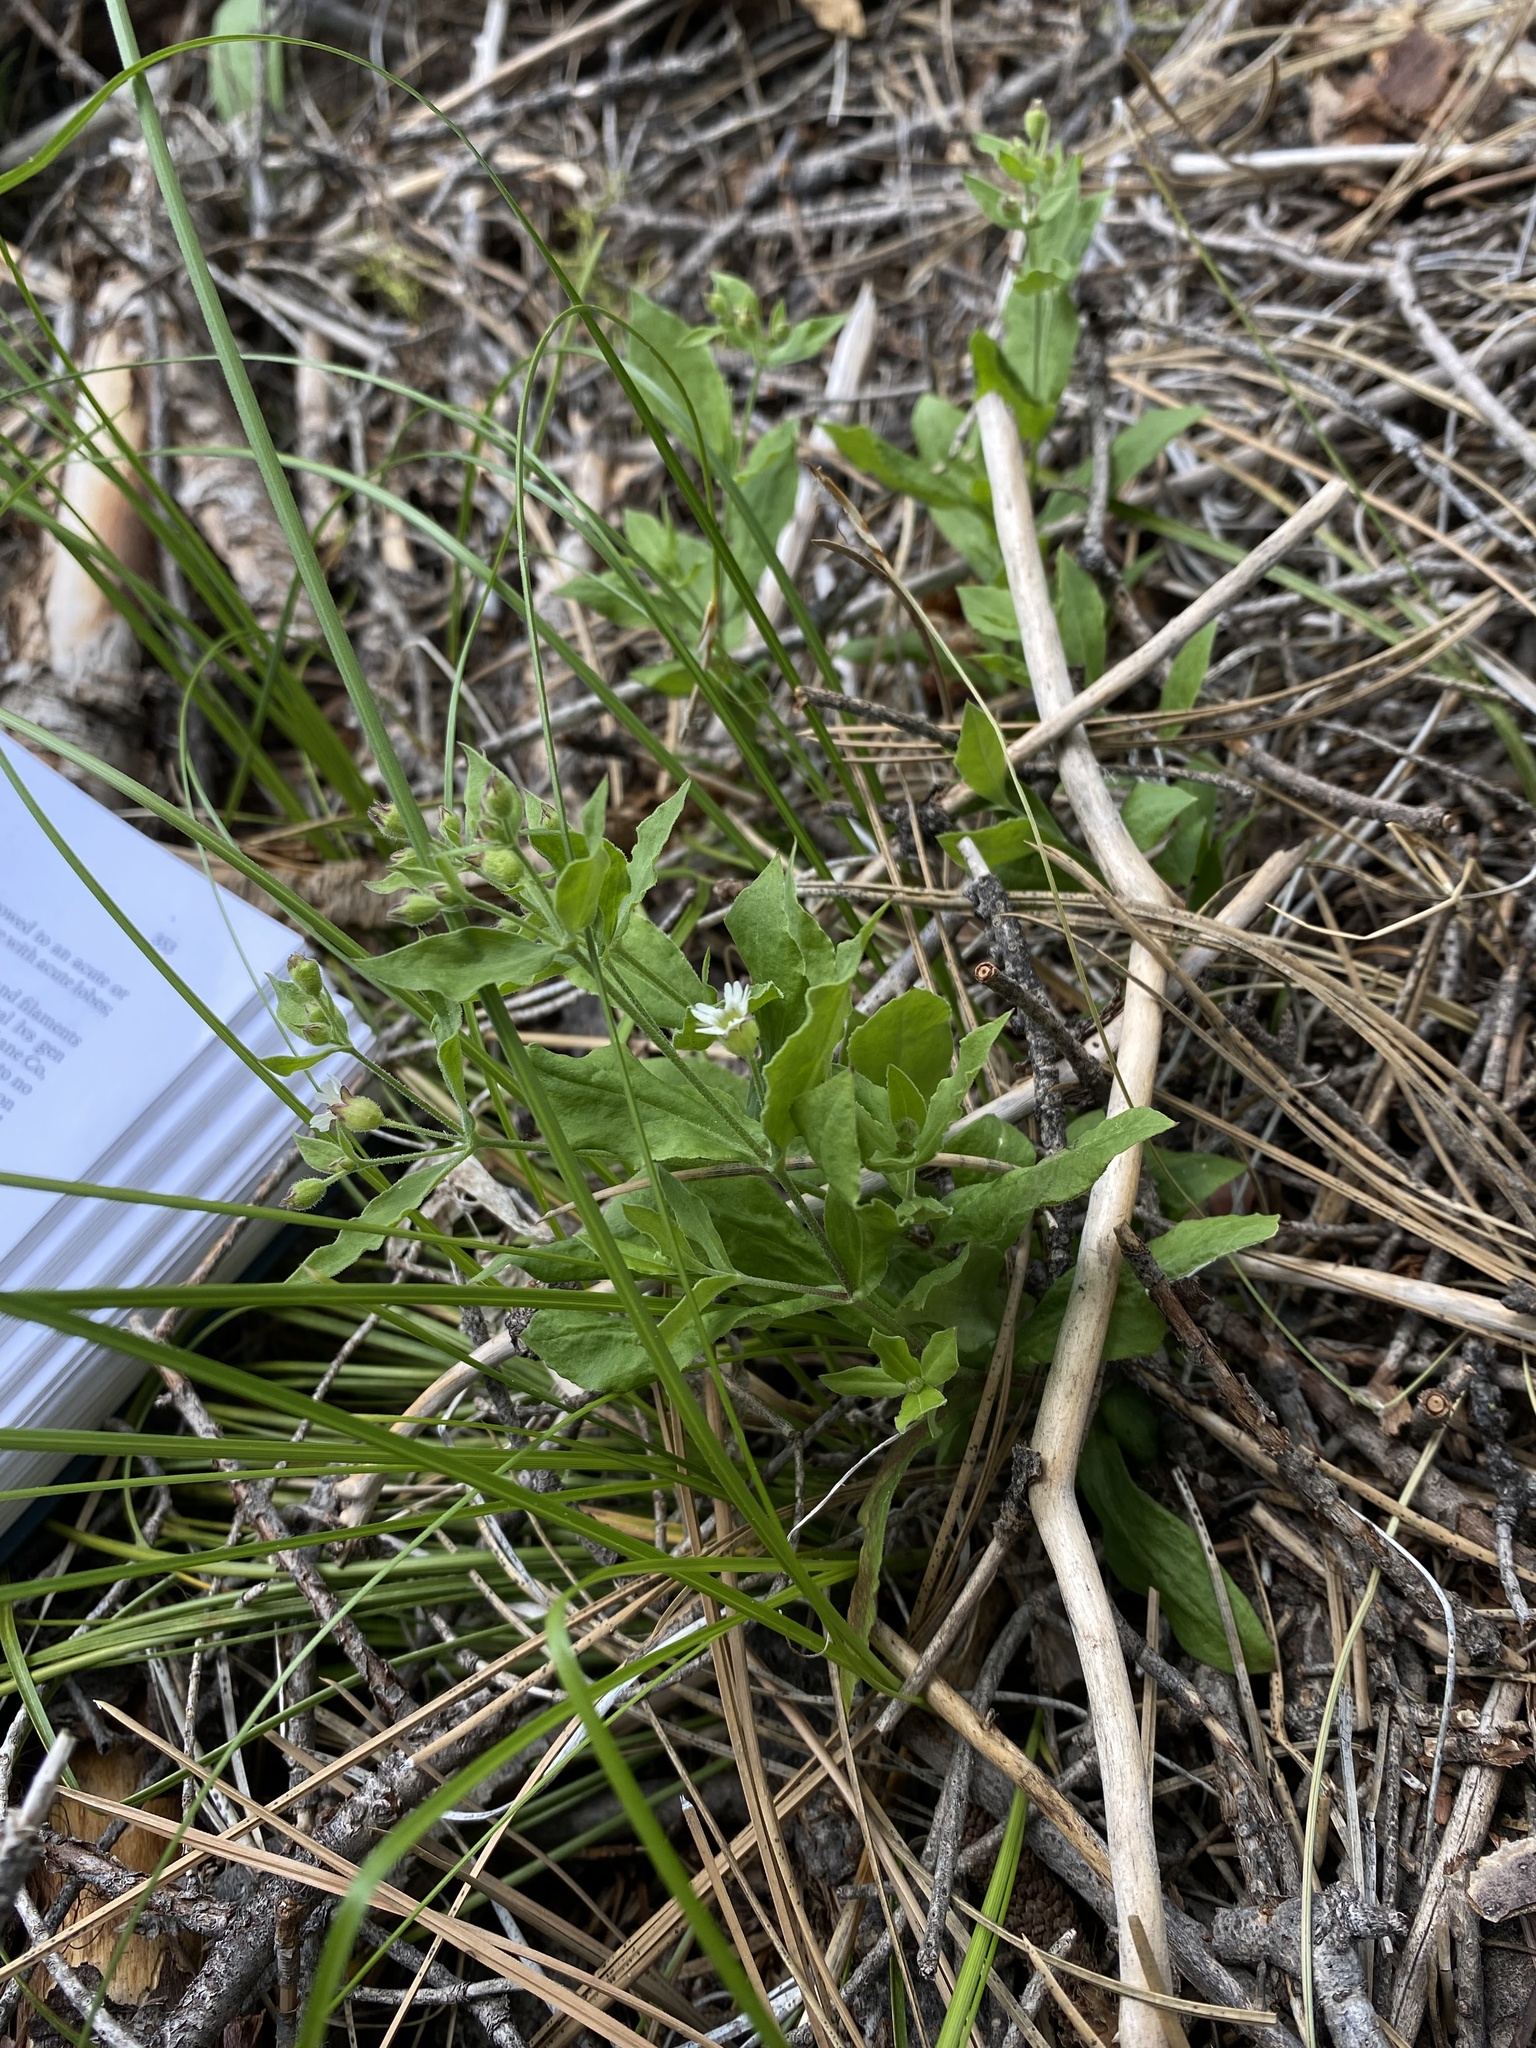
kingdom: Plantae
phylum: Tracheophyta
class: Magnoliopsida
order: Caryophyllales
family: Caryophyllaceae
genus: Silene
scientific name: Silene menziesii
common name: Menzies's catchfly
